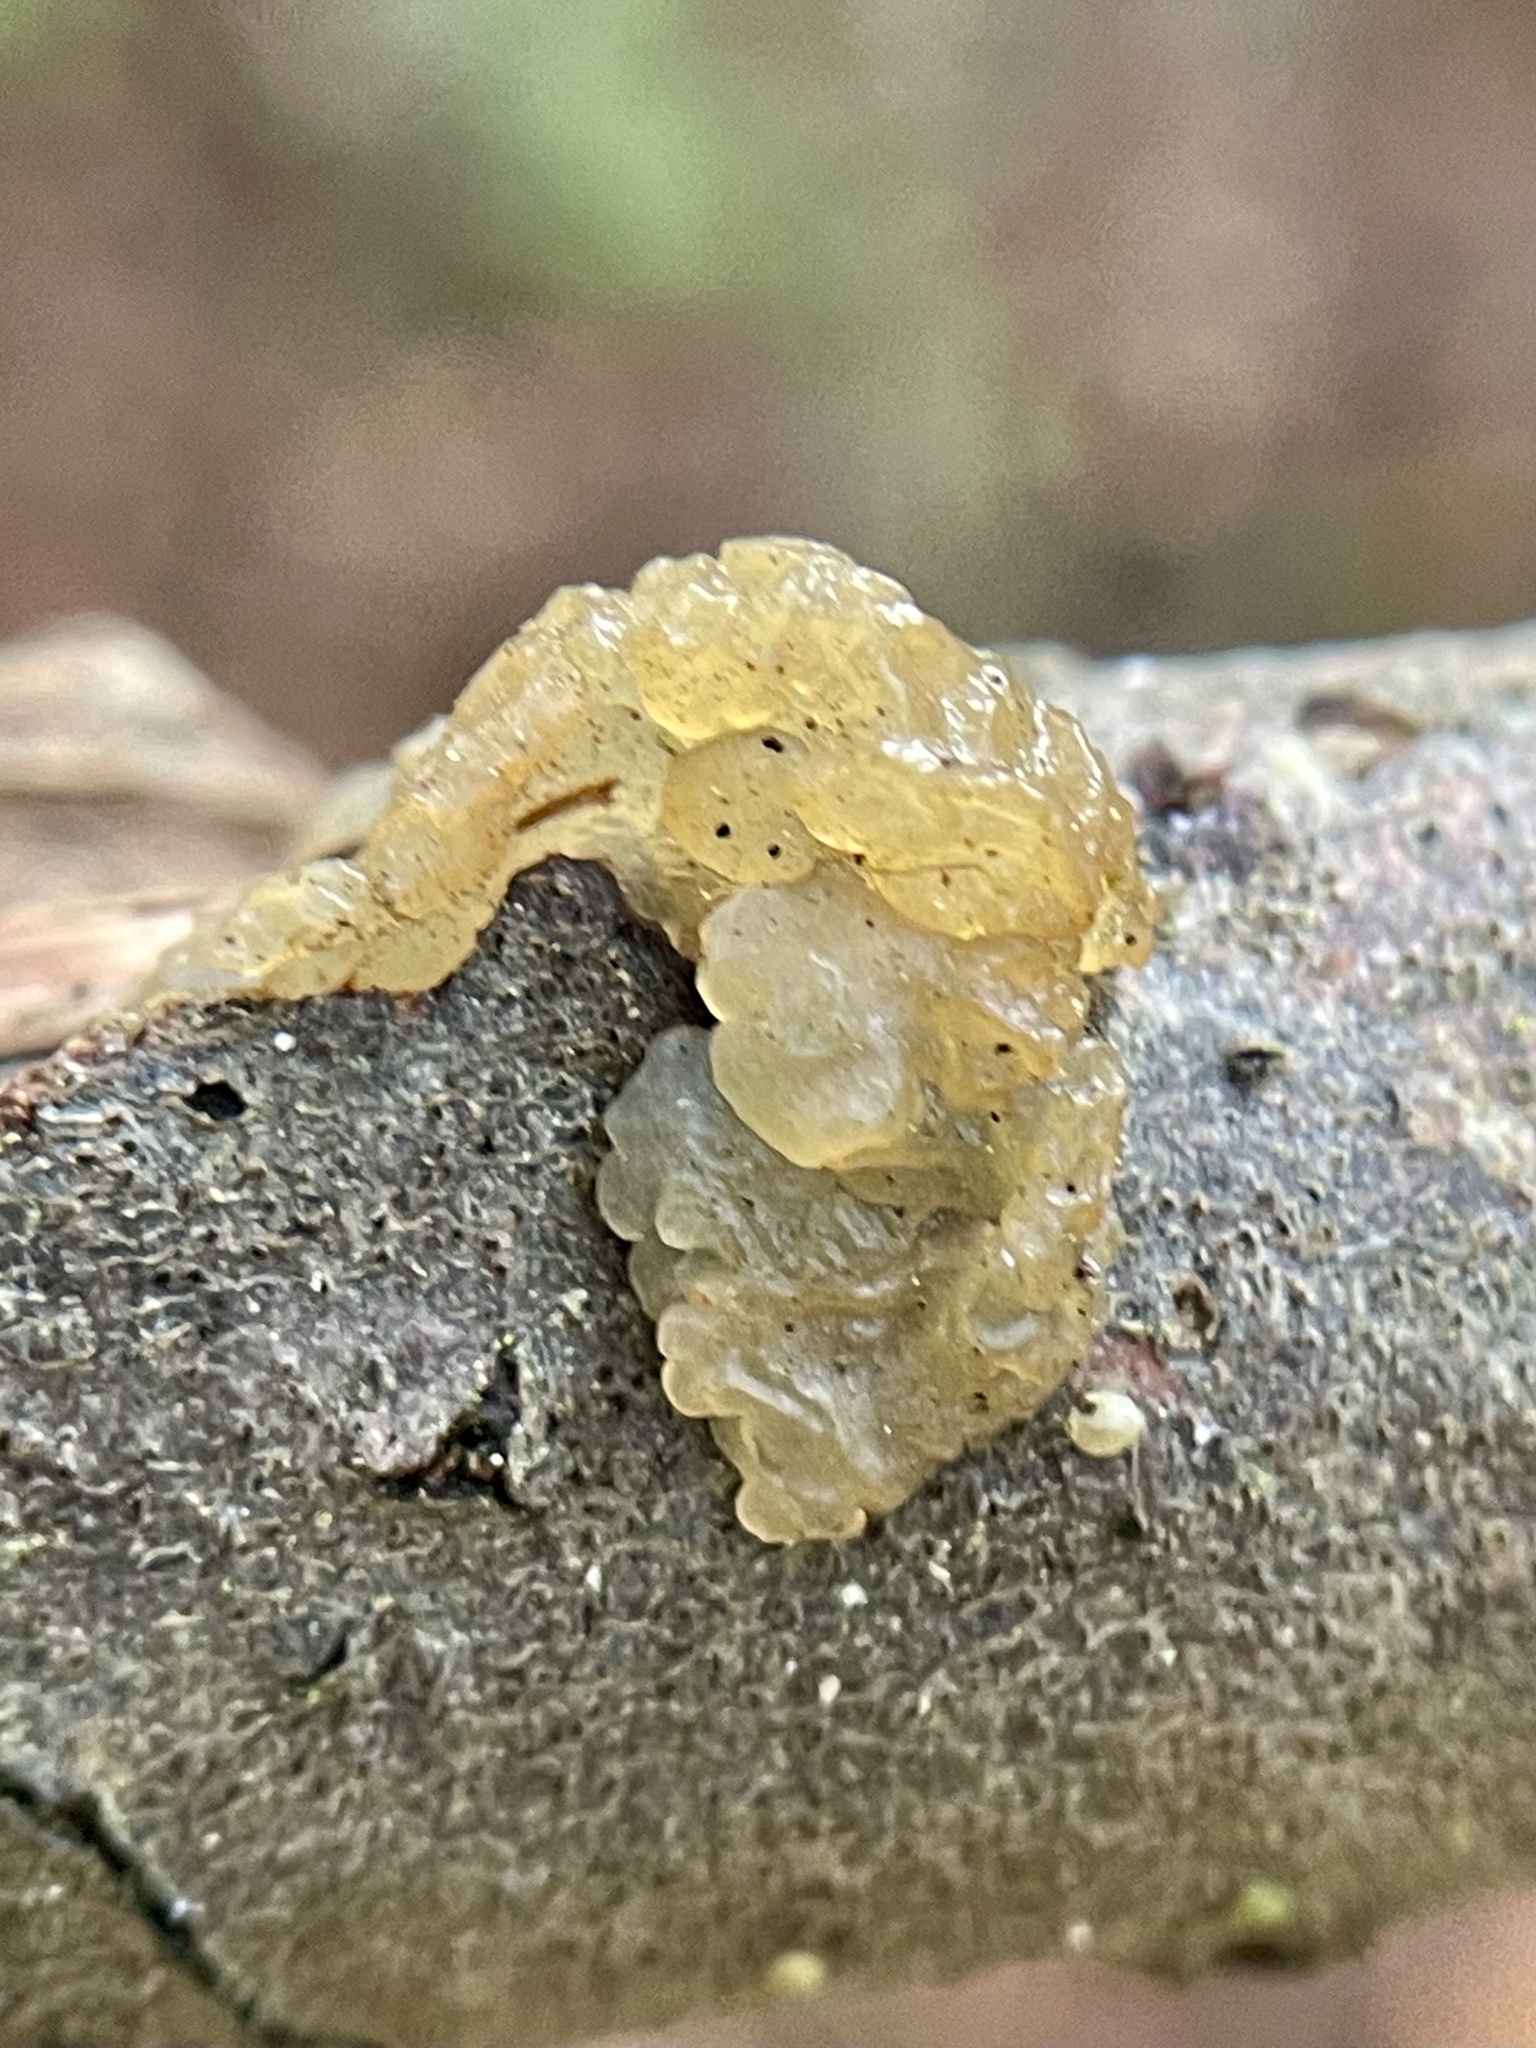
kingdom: Fungi
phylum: Basidiomycota
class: Agaricomycetes
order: Auriculariales
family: Hyaloriaceae
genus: Myxarium
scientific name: Myxarium nucleatum
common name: Crystal brain fungus
